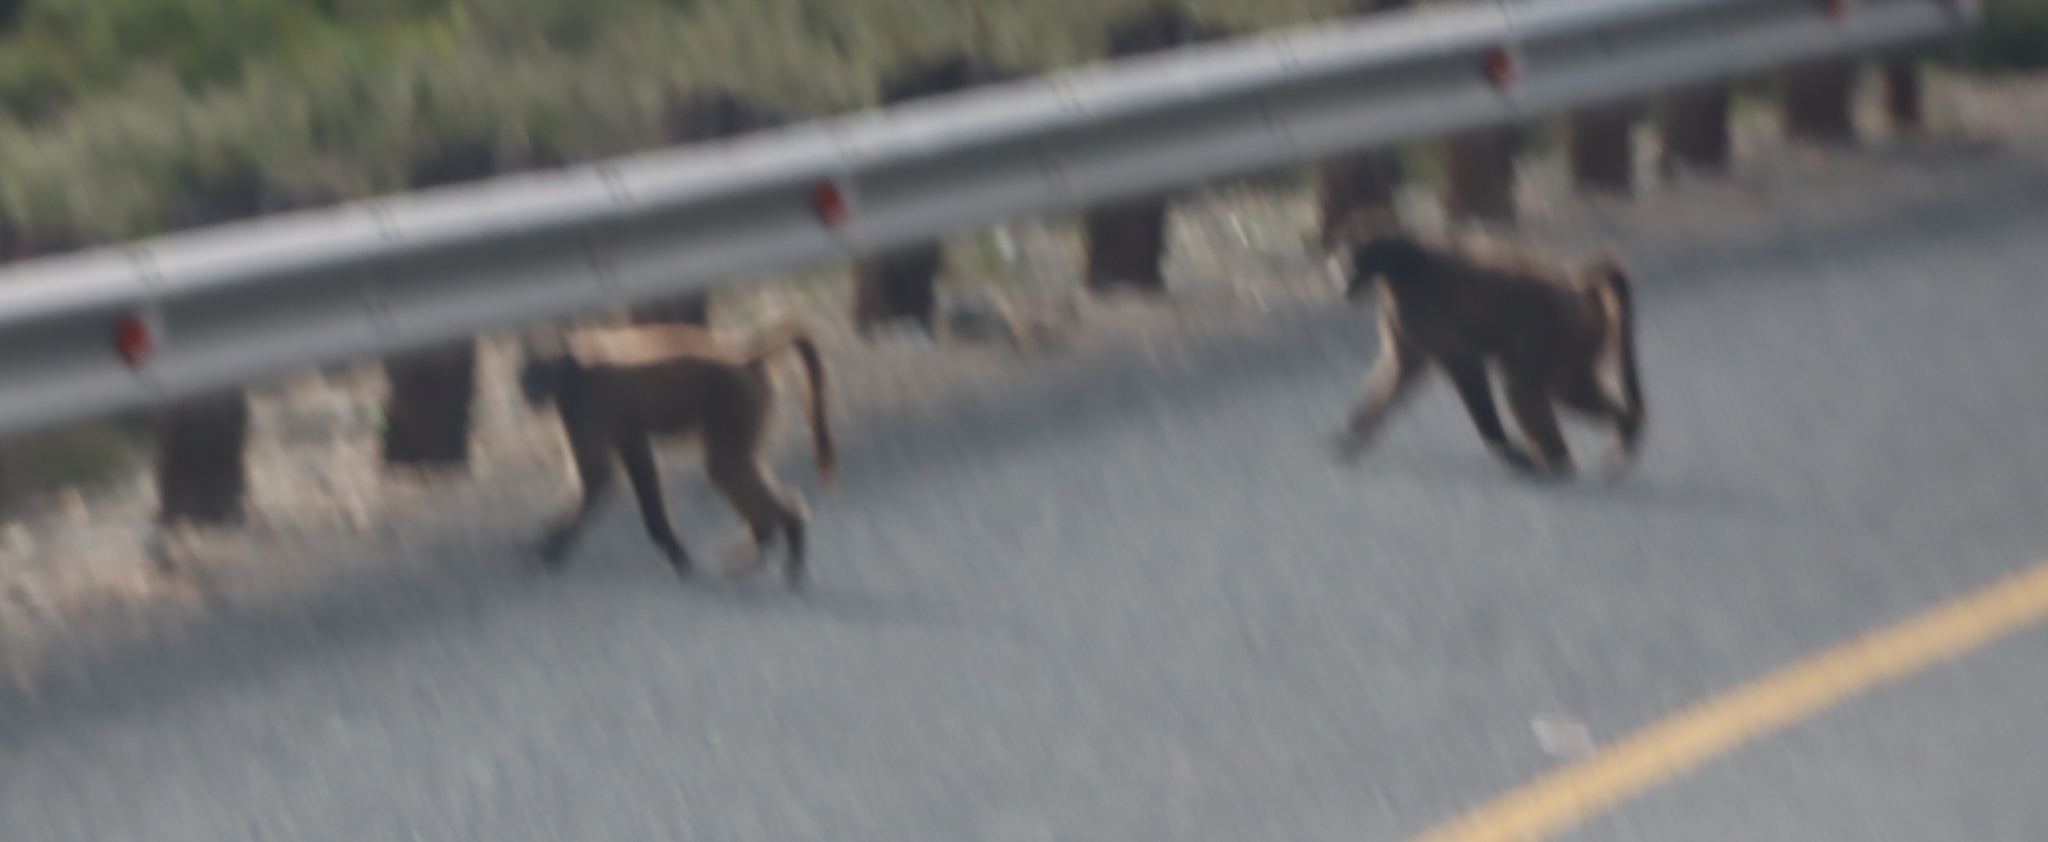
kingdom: Animalia
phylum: Chordata
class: Mammalia
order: Primates
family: Cercopithecidae
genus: Papio
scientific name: Papio ursinus
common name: Chacma baboon
